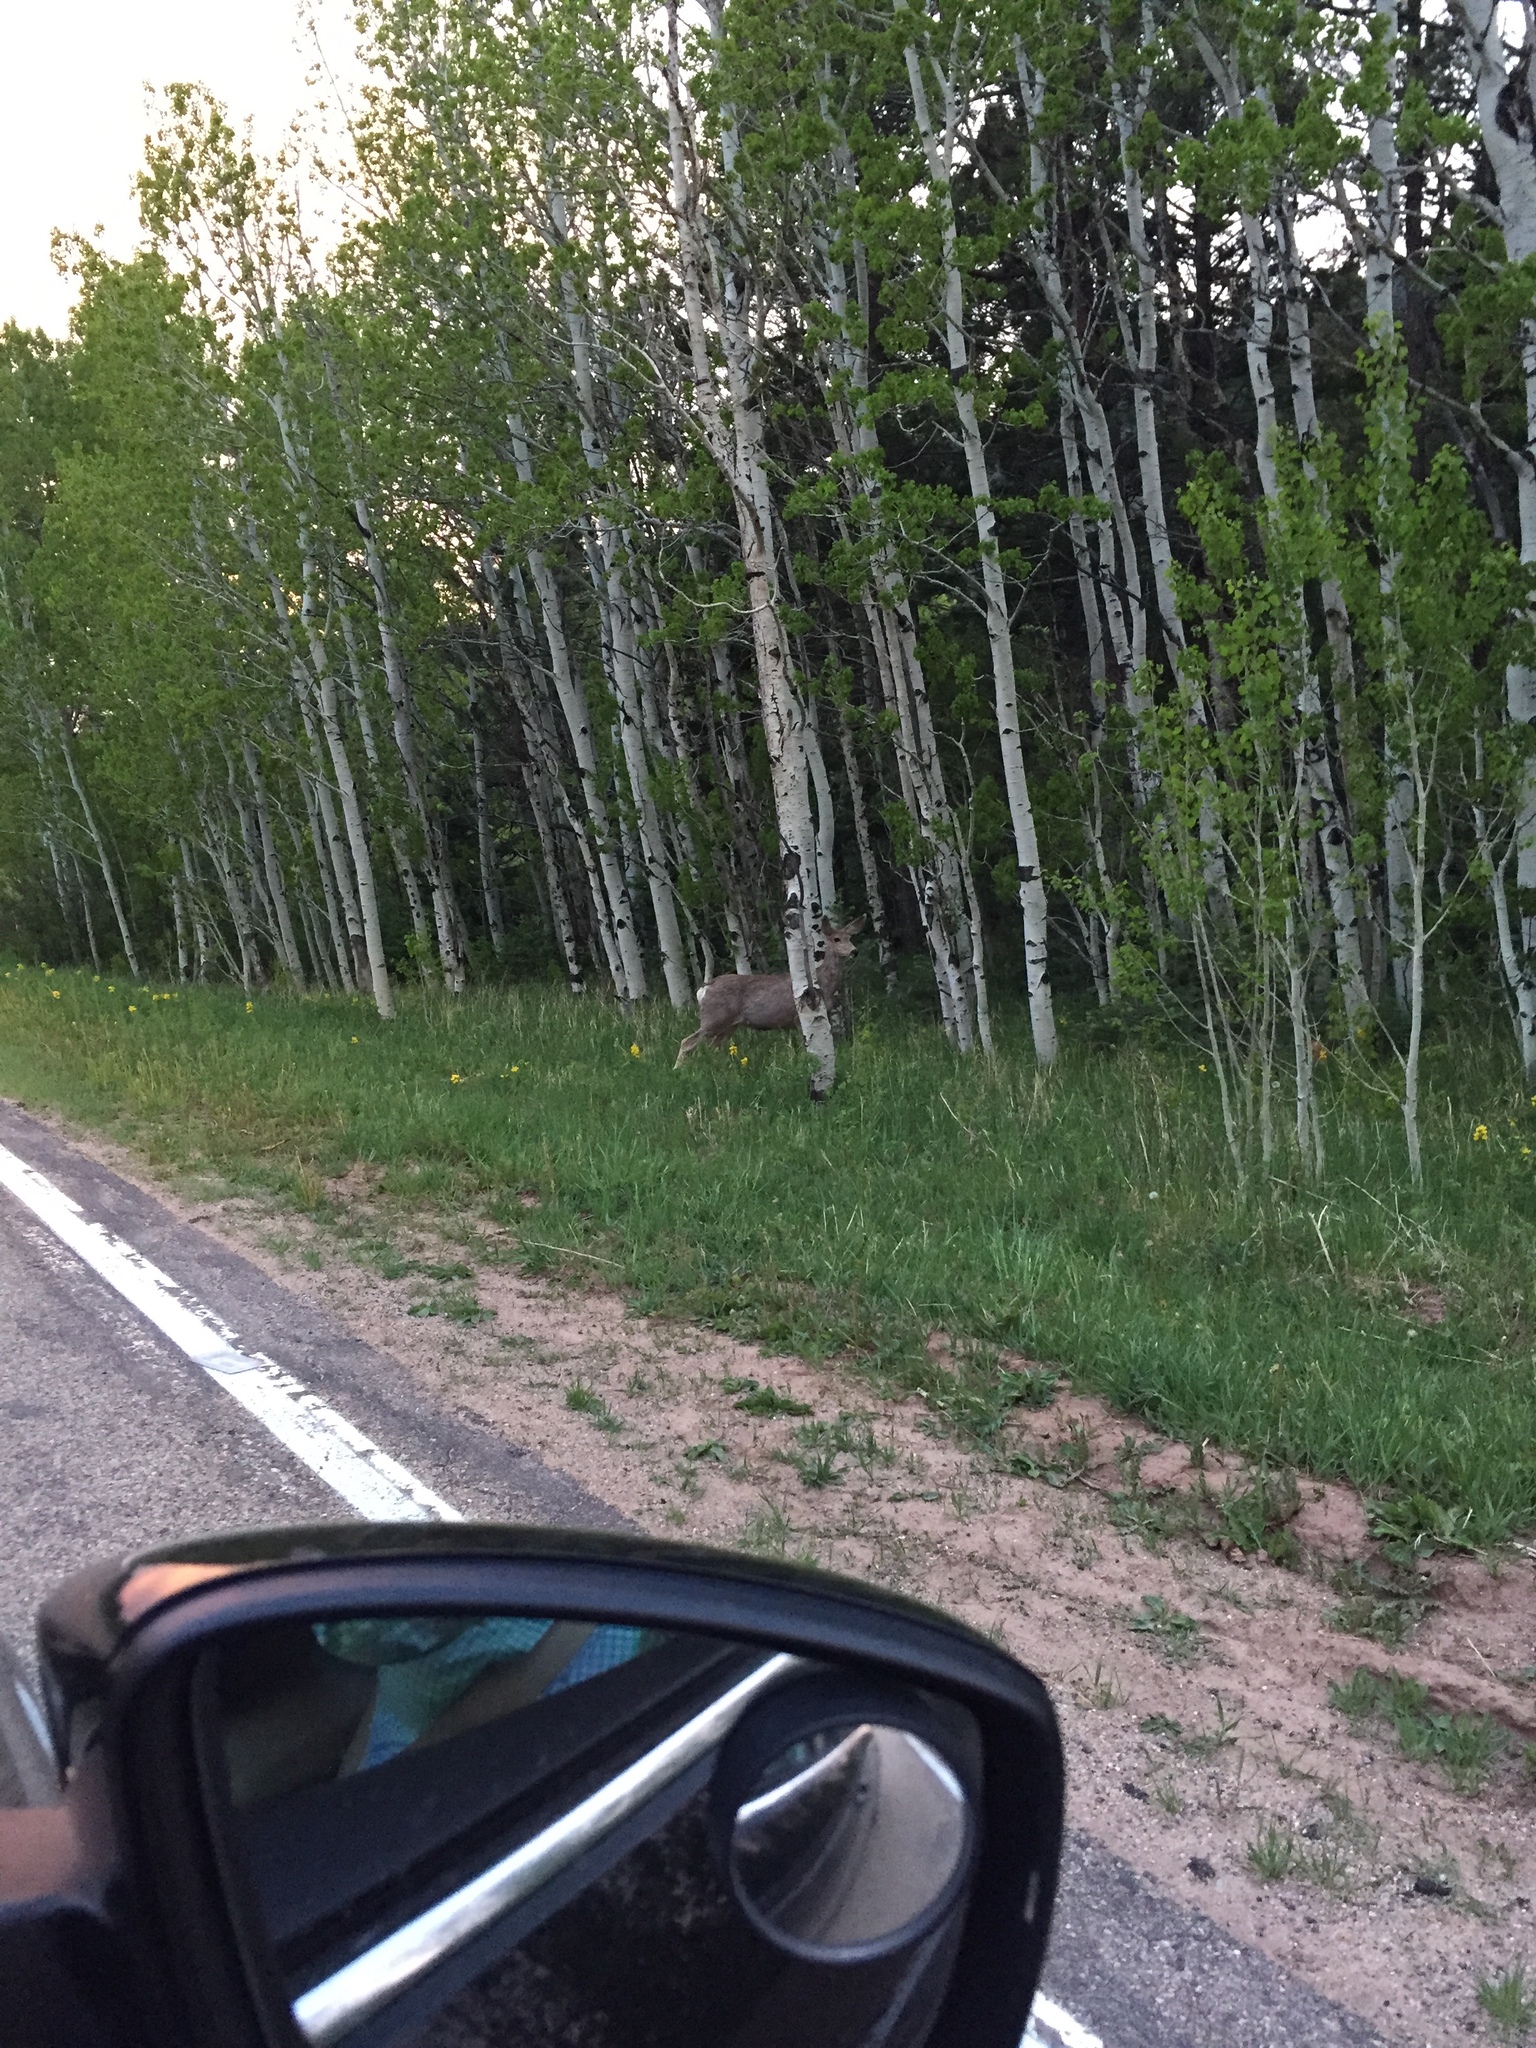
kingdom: Animalia
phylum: Chordata
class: Mammalia
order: Artiodactyla
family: Cervidae
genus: Odocoileus
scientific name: Odocoileus hemionus
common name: Mule deer
